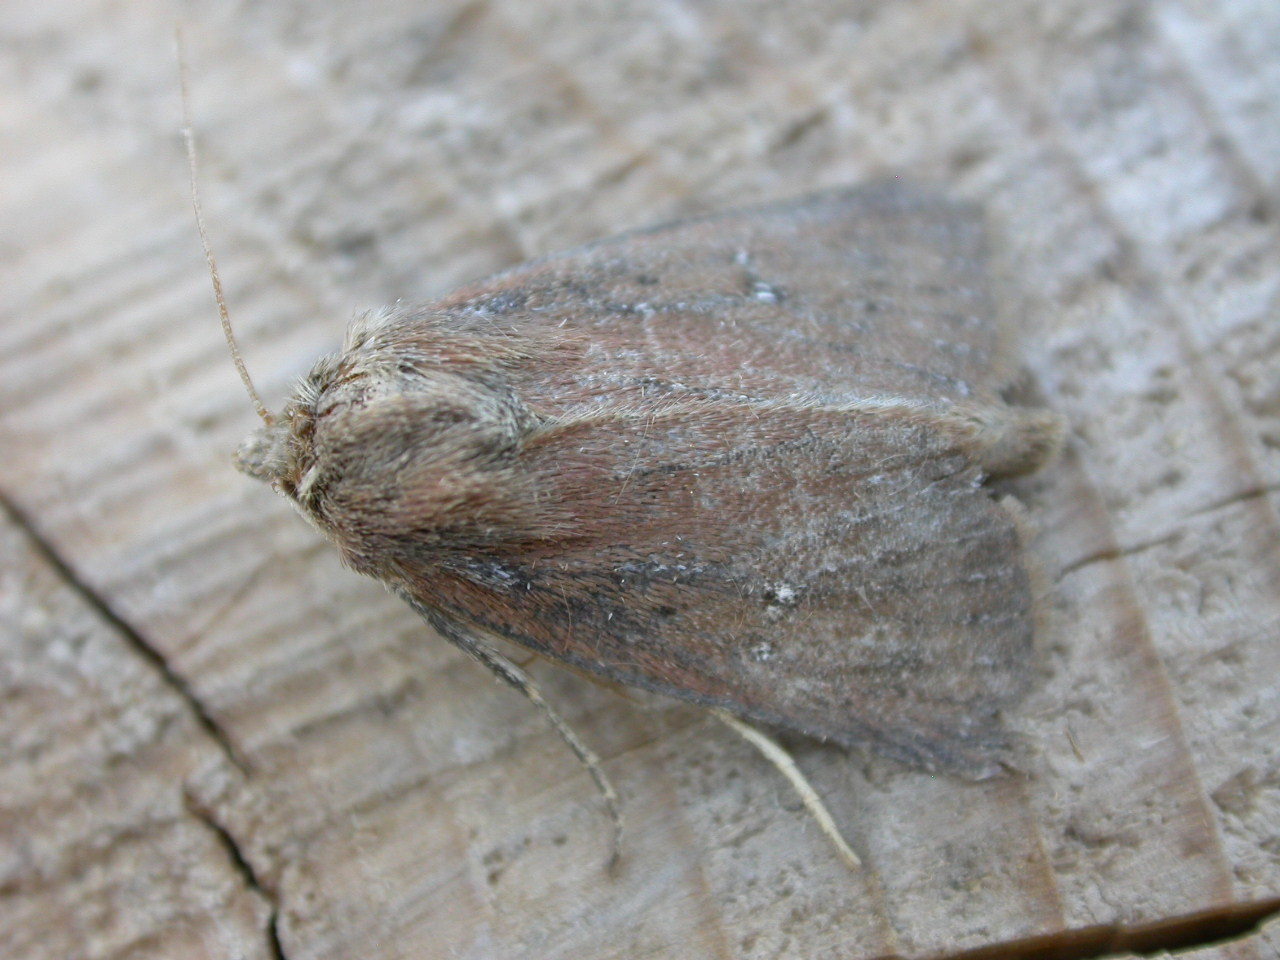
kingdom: Animalia
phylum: Arthropoda
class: Insecta
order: Lepidoptera
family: Noctuidae
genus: Lenisa
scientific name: Lenisa geminipuncta
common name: Twin-spotted wainscot
